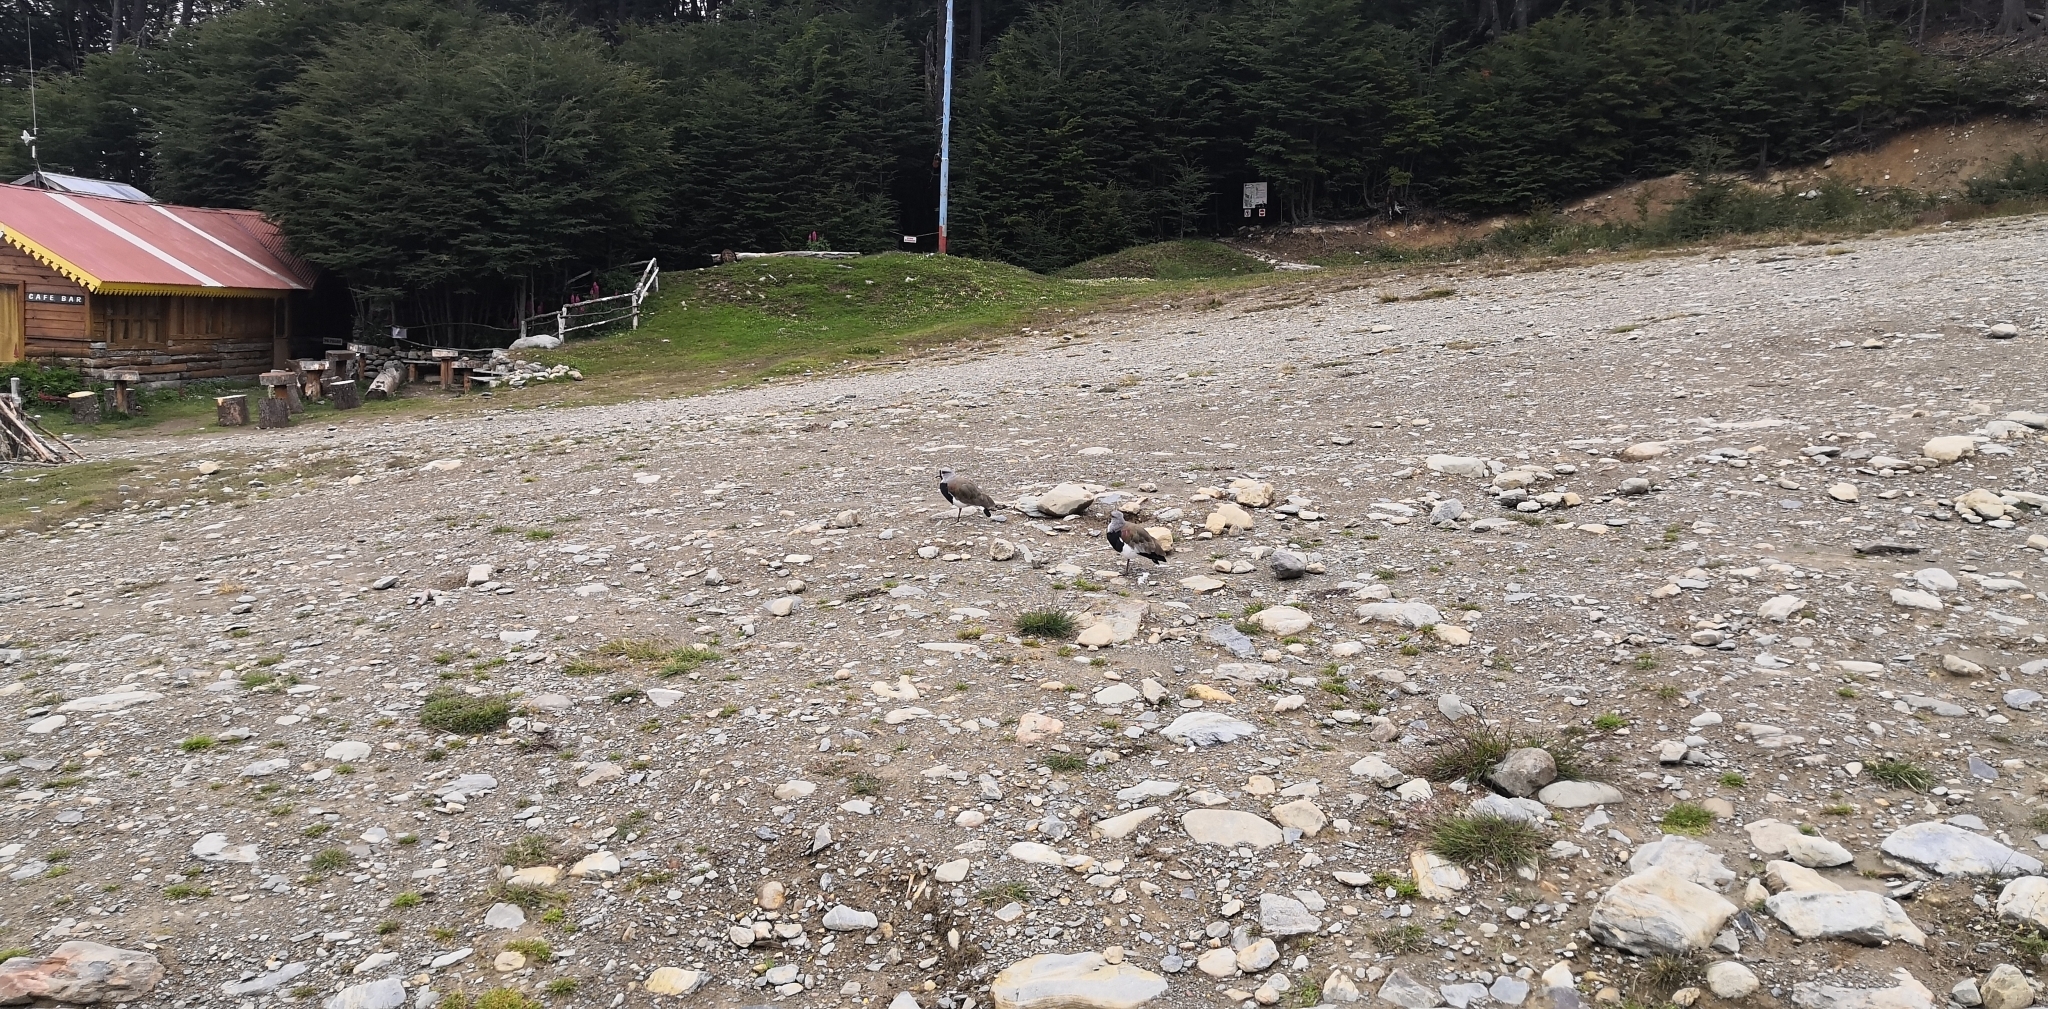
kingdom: Animalia
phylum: Chordata
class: Aves
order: Charadriiformes
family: Charadriidae
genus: Vanellus
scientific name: Vanellus chilensis
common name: Southern lapwing
